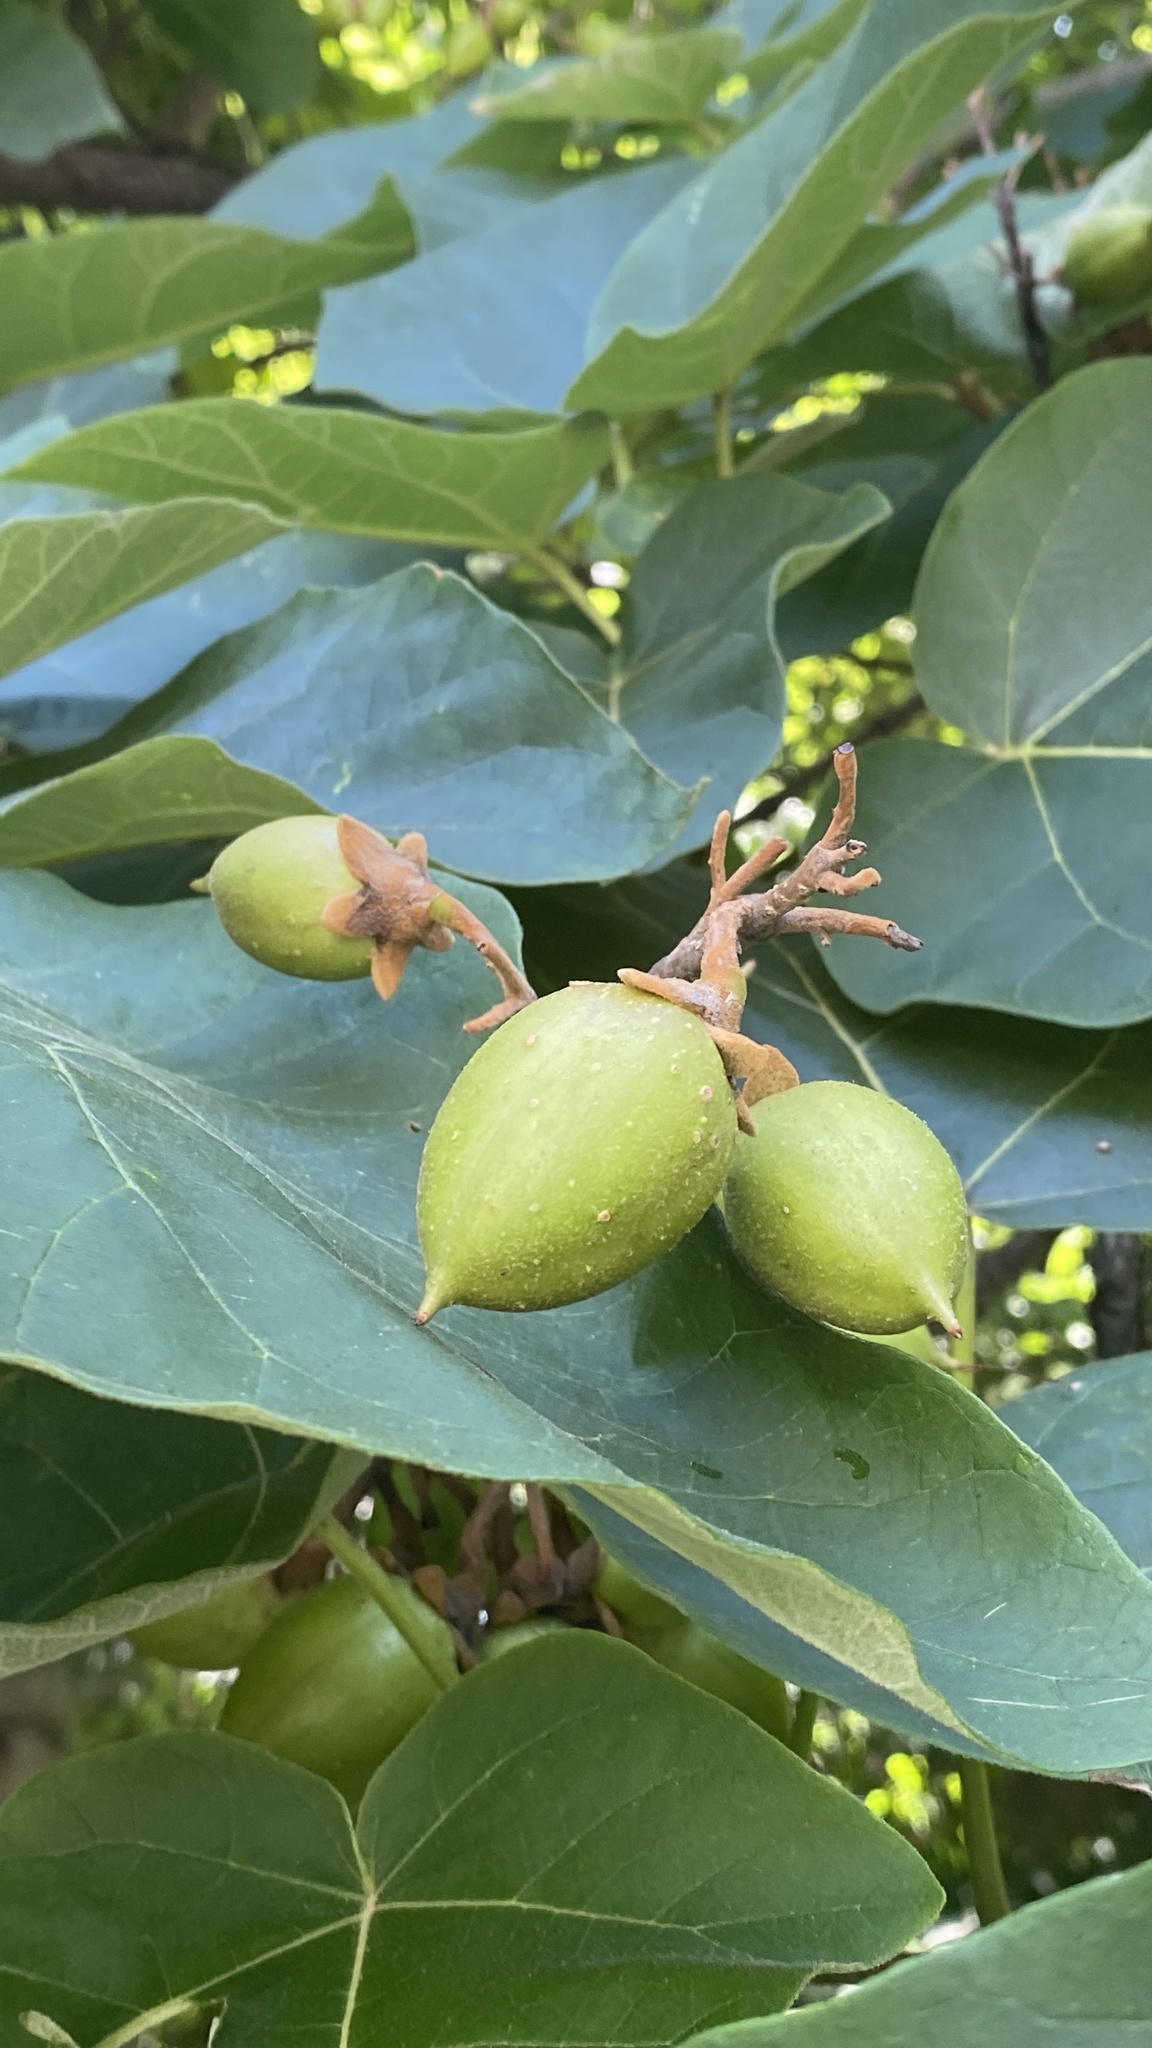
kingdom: Plantae
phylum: Tracheophyta
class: Magnoliopsida
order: Lamiales
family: Paulowniaceae
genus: Paulownia
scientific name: Paulownia tomentosa
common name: Foxglove-tree
